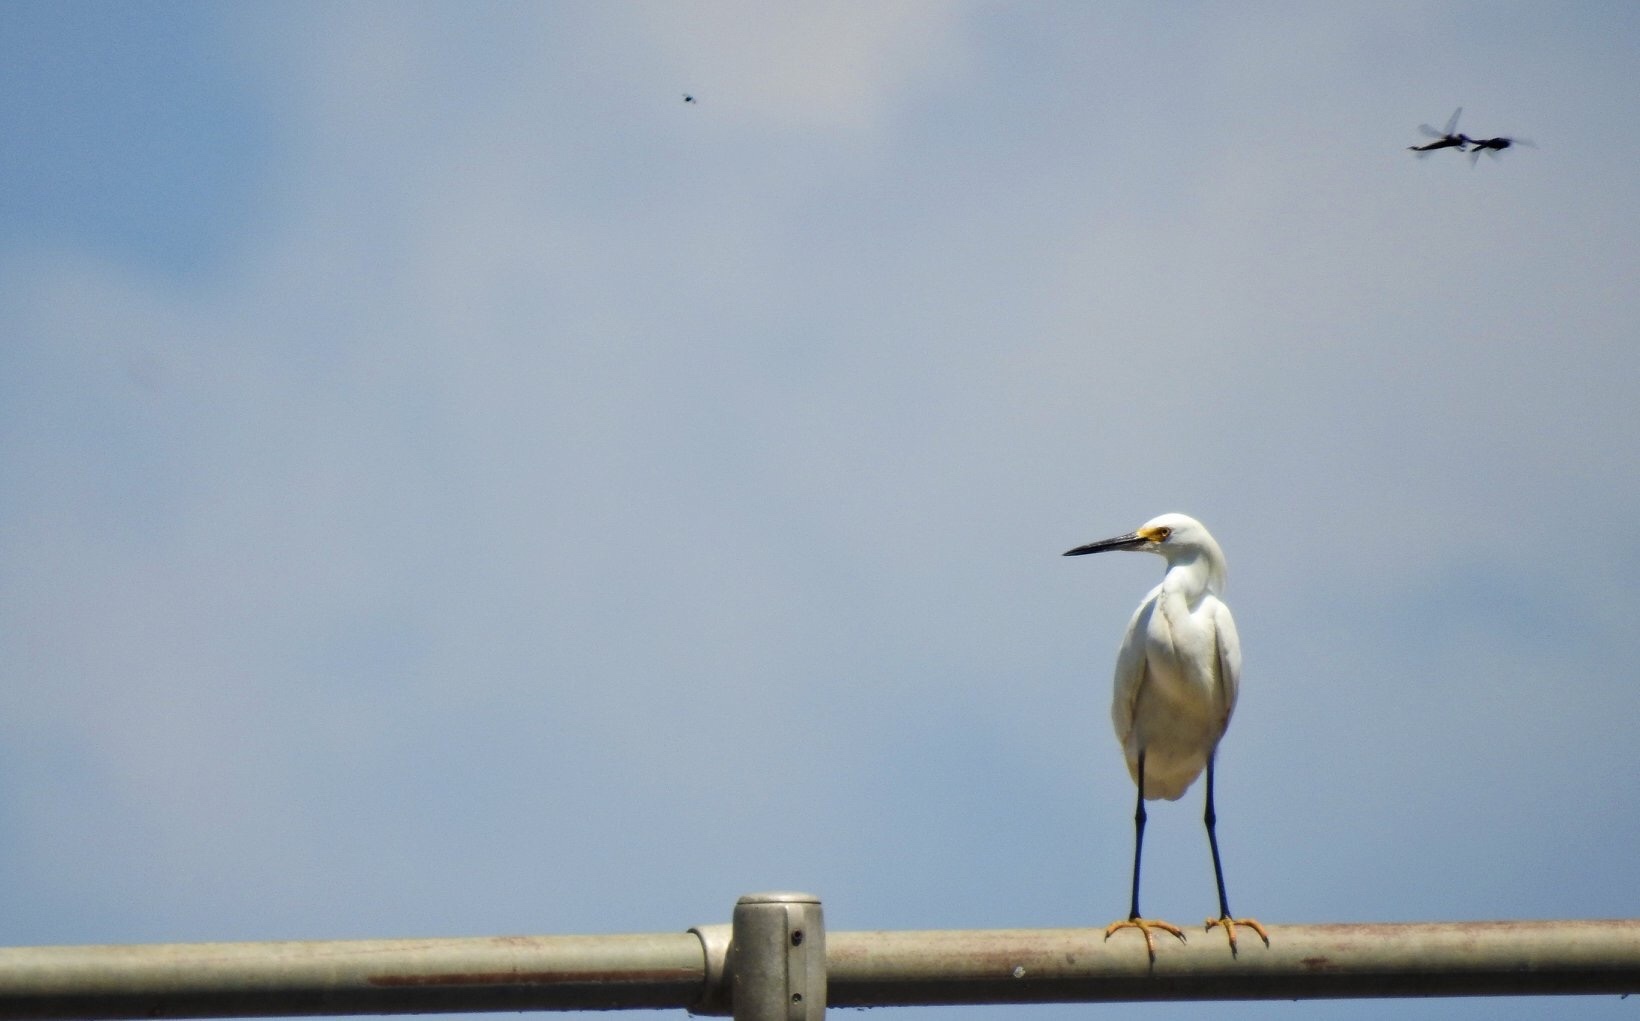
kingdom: Animalia
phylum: Chordata
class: Aves
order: Pelecaniformes
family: Ardeidae
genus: Egretta
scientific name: Egretta thula
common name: Snowy egret
